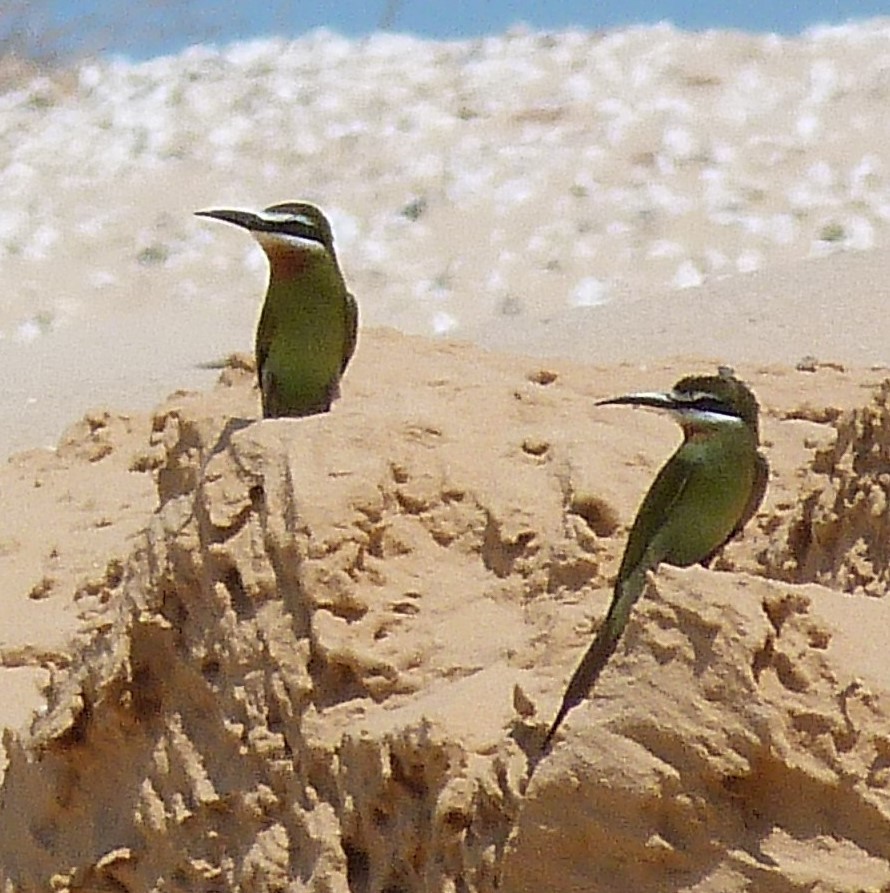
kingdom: Animalia
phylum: Chordata
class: Aves
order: Coraciiformes
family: Meropidae
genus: Merops
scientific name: Merops superciliosus
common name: Olive bee-eater
